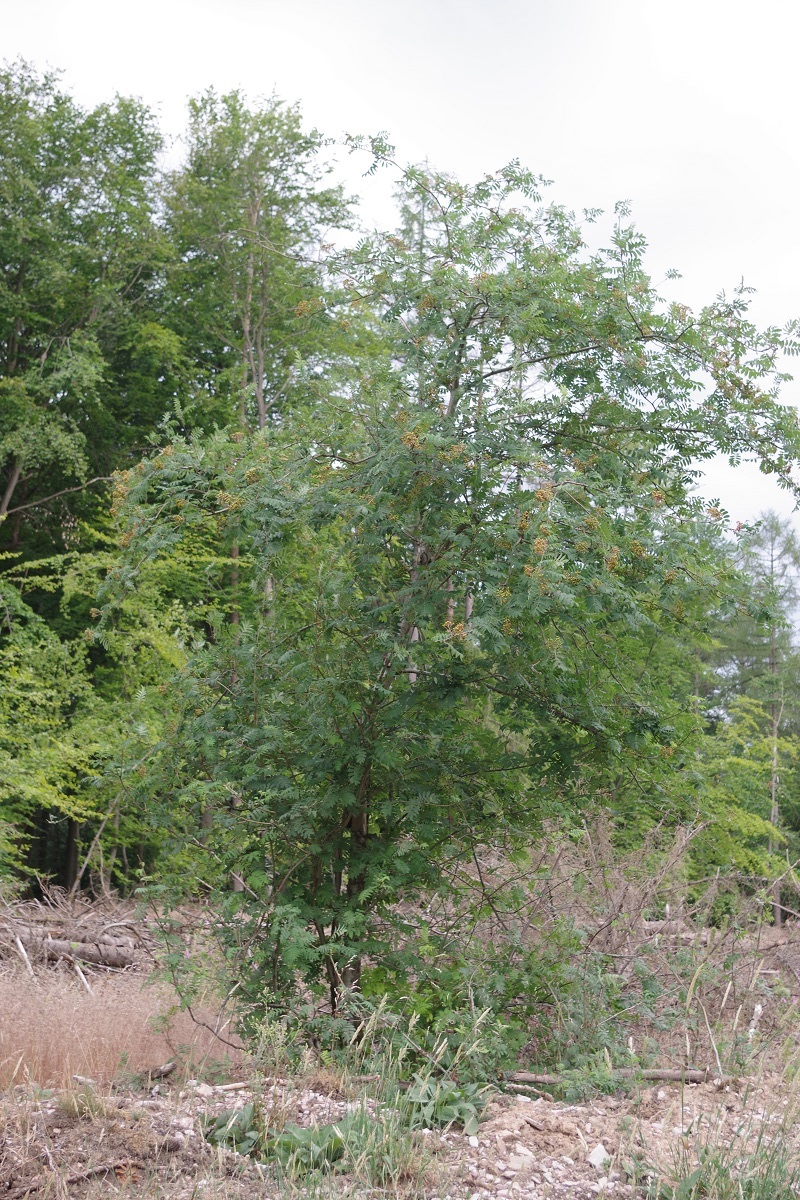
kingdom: Plantae
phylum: Tracheophyta
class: Magnoliopsida
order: Rosales
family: Rosaceae
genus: Sorbus
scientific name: Sorbus aucuparia
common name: Rowan
